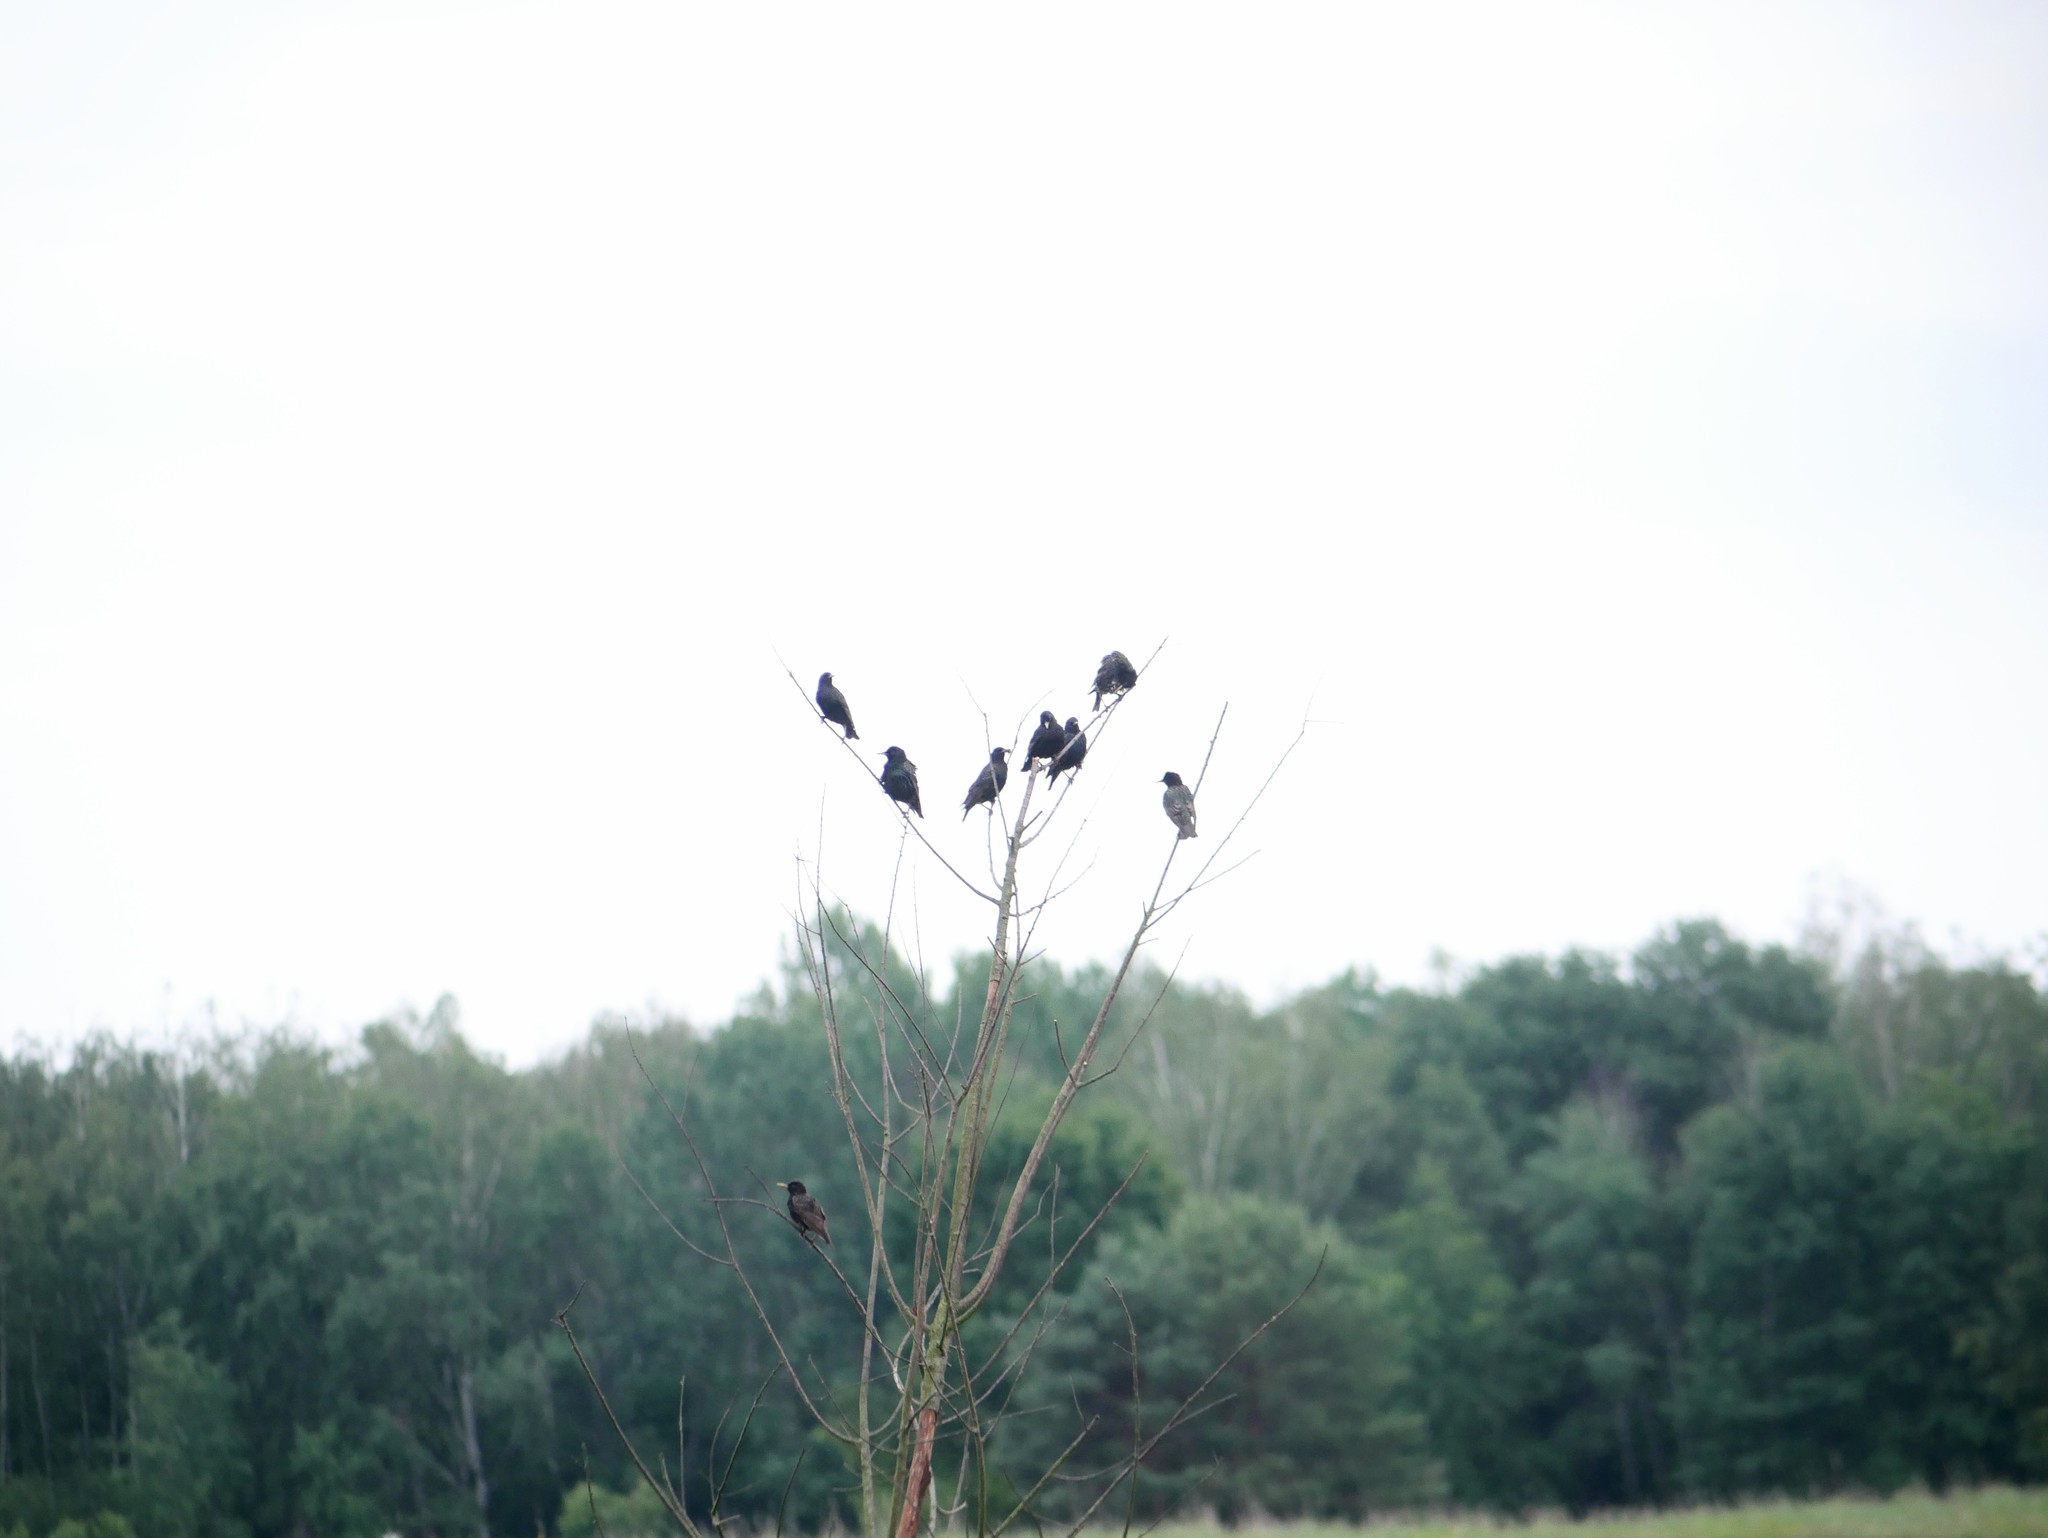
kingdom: Animalia
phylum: Chordata
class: Aves
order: Passeriformes
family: Sturnidae
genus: Sturnus
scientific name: Sturnus vulgaris
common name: Common starling
